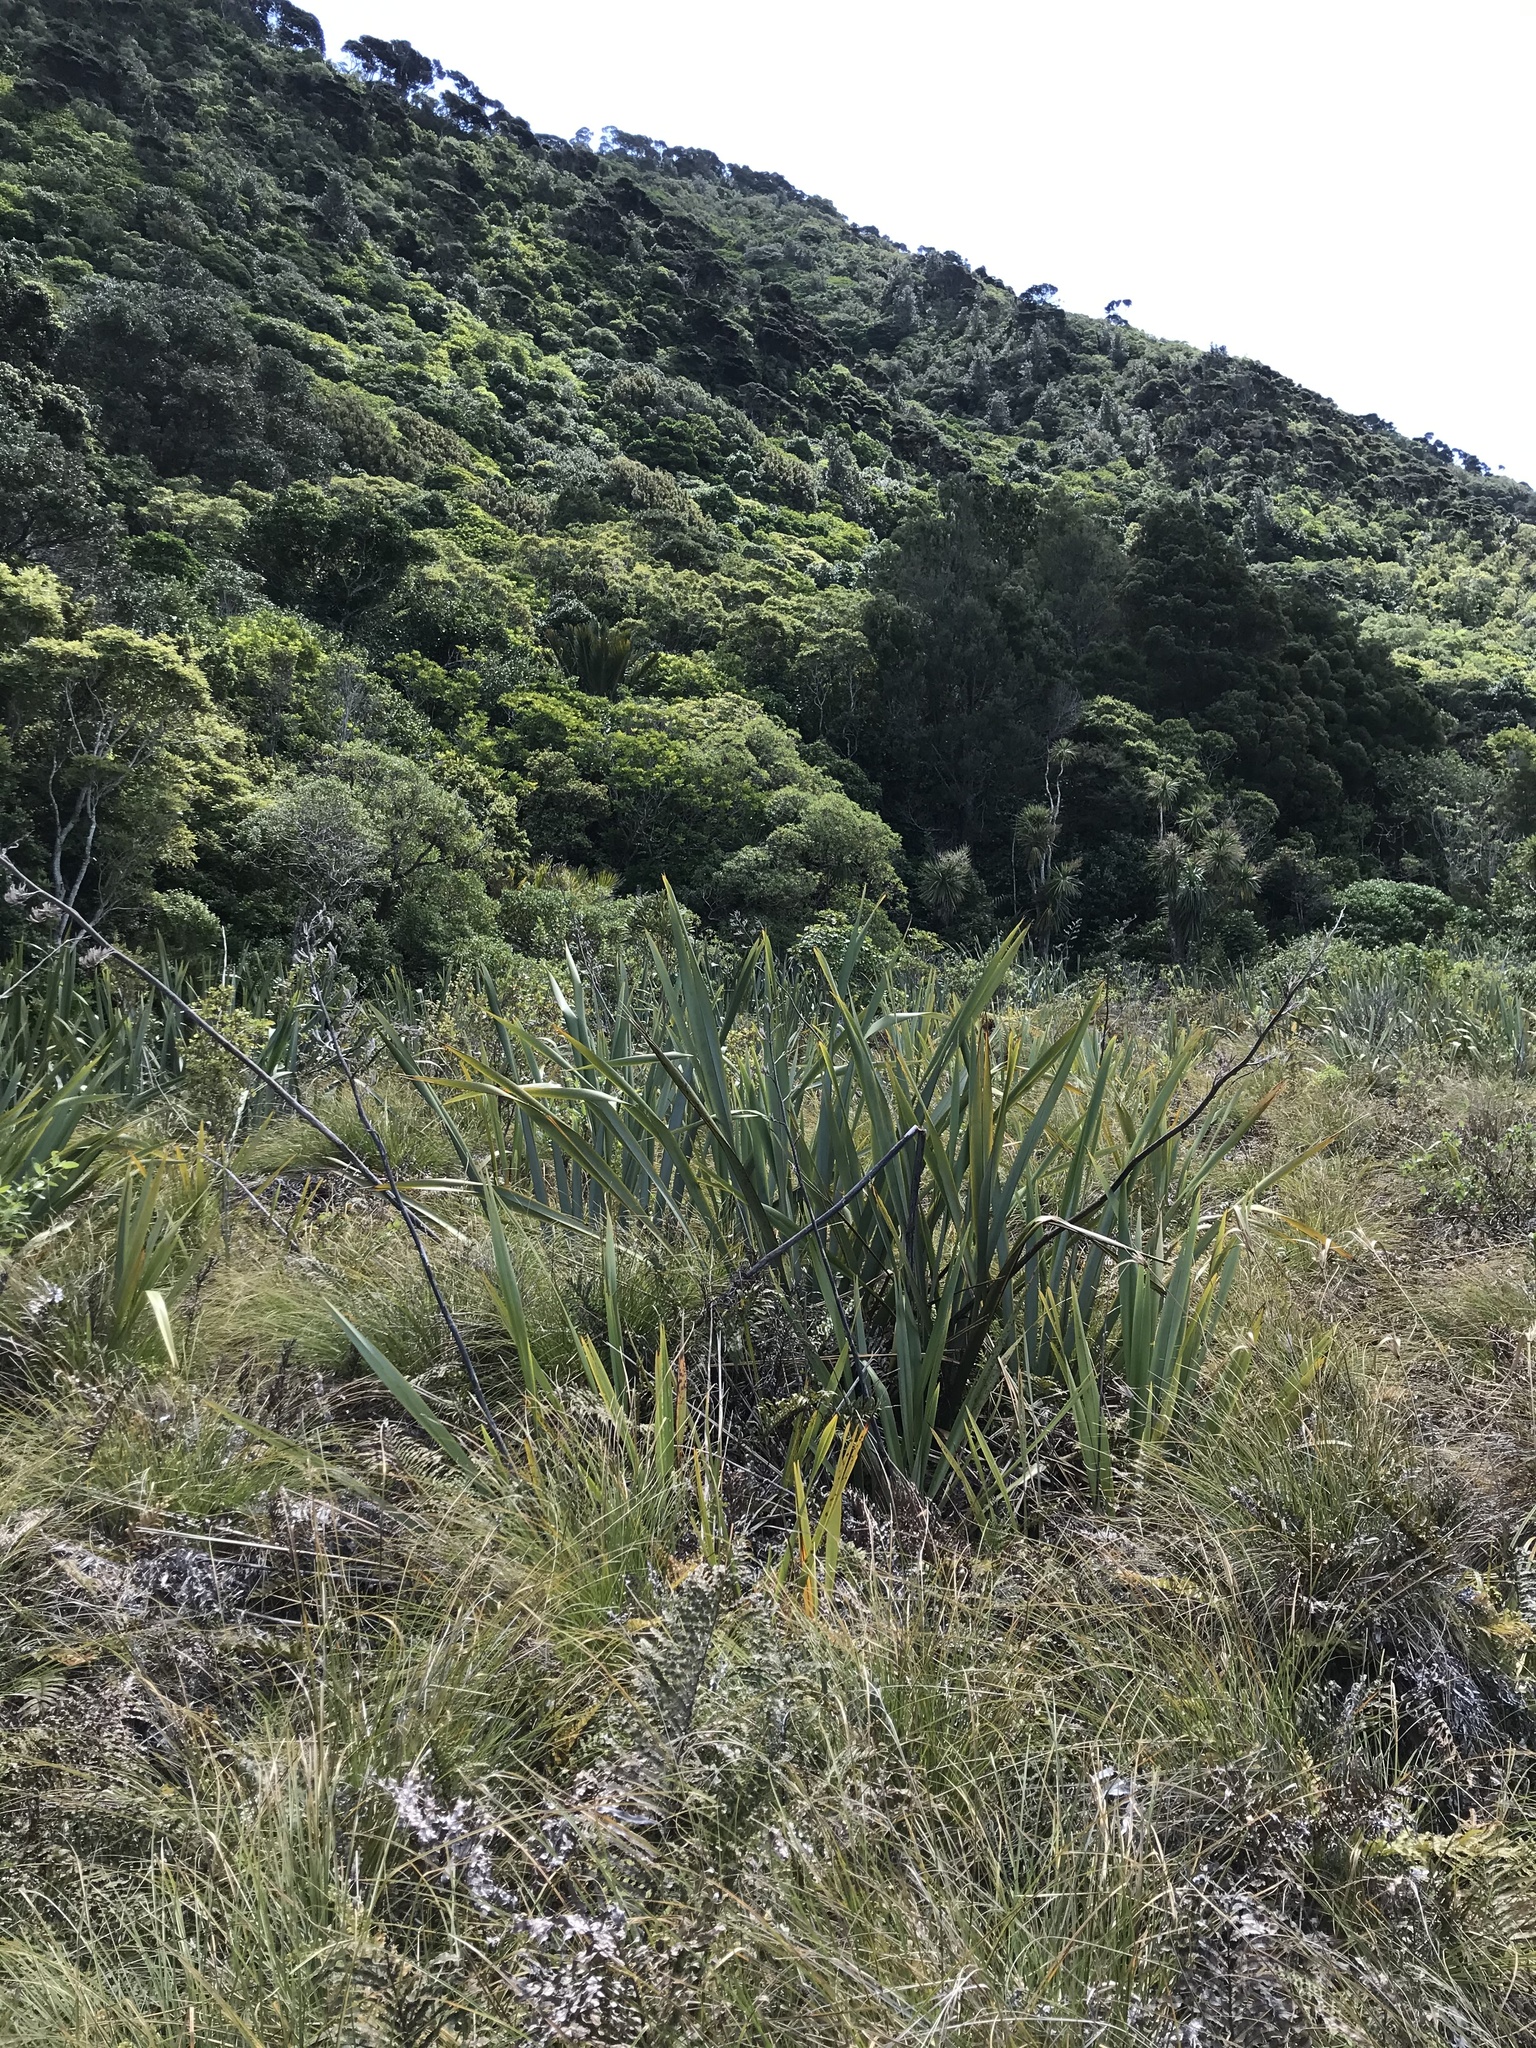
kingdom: Plantae
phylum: Tracheophyta
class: Liliopsida
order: Asparagales
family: Asphodelaceae
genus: Phormium
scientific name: Phormium tenax
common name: New zealand flax
